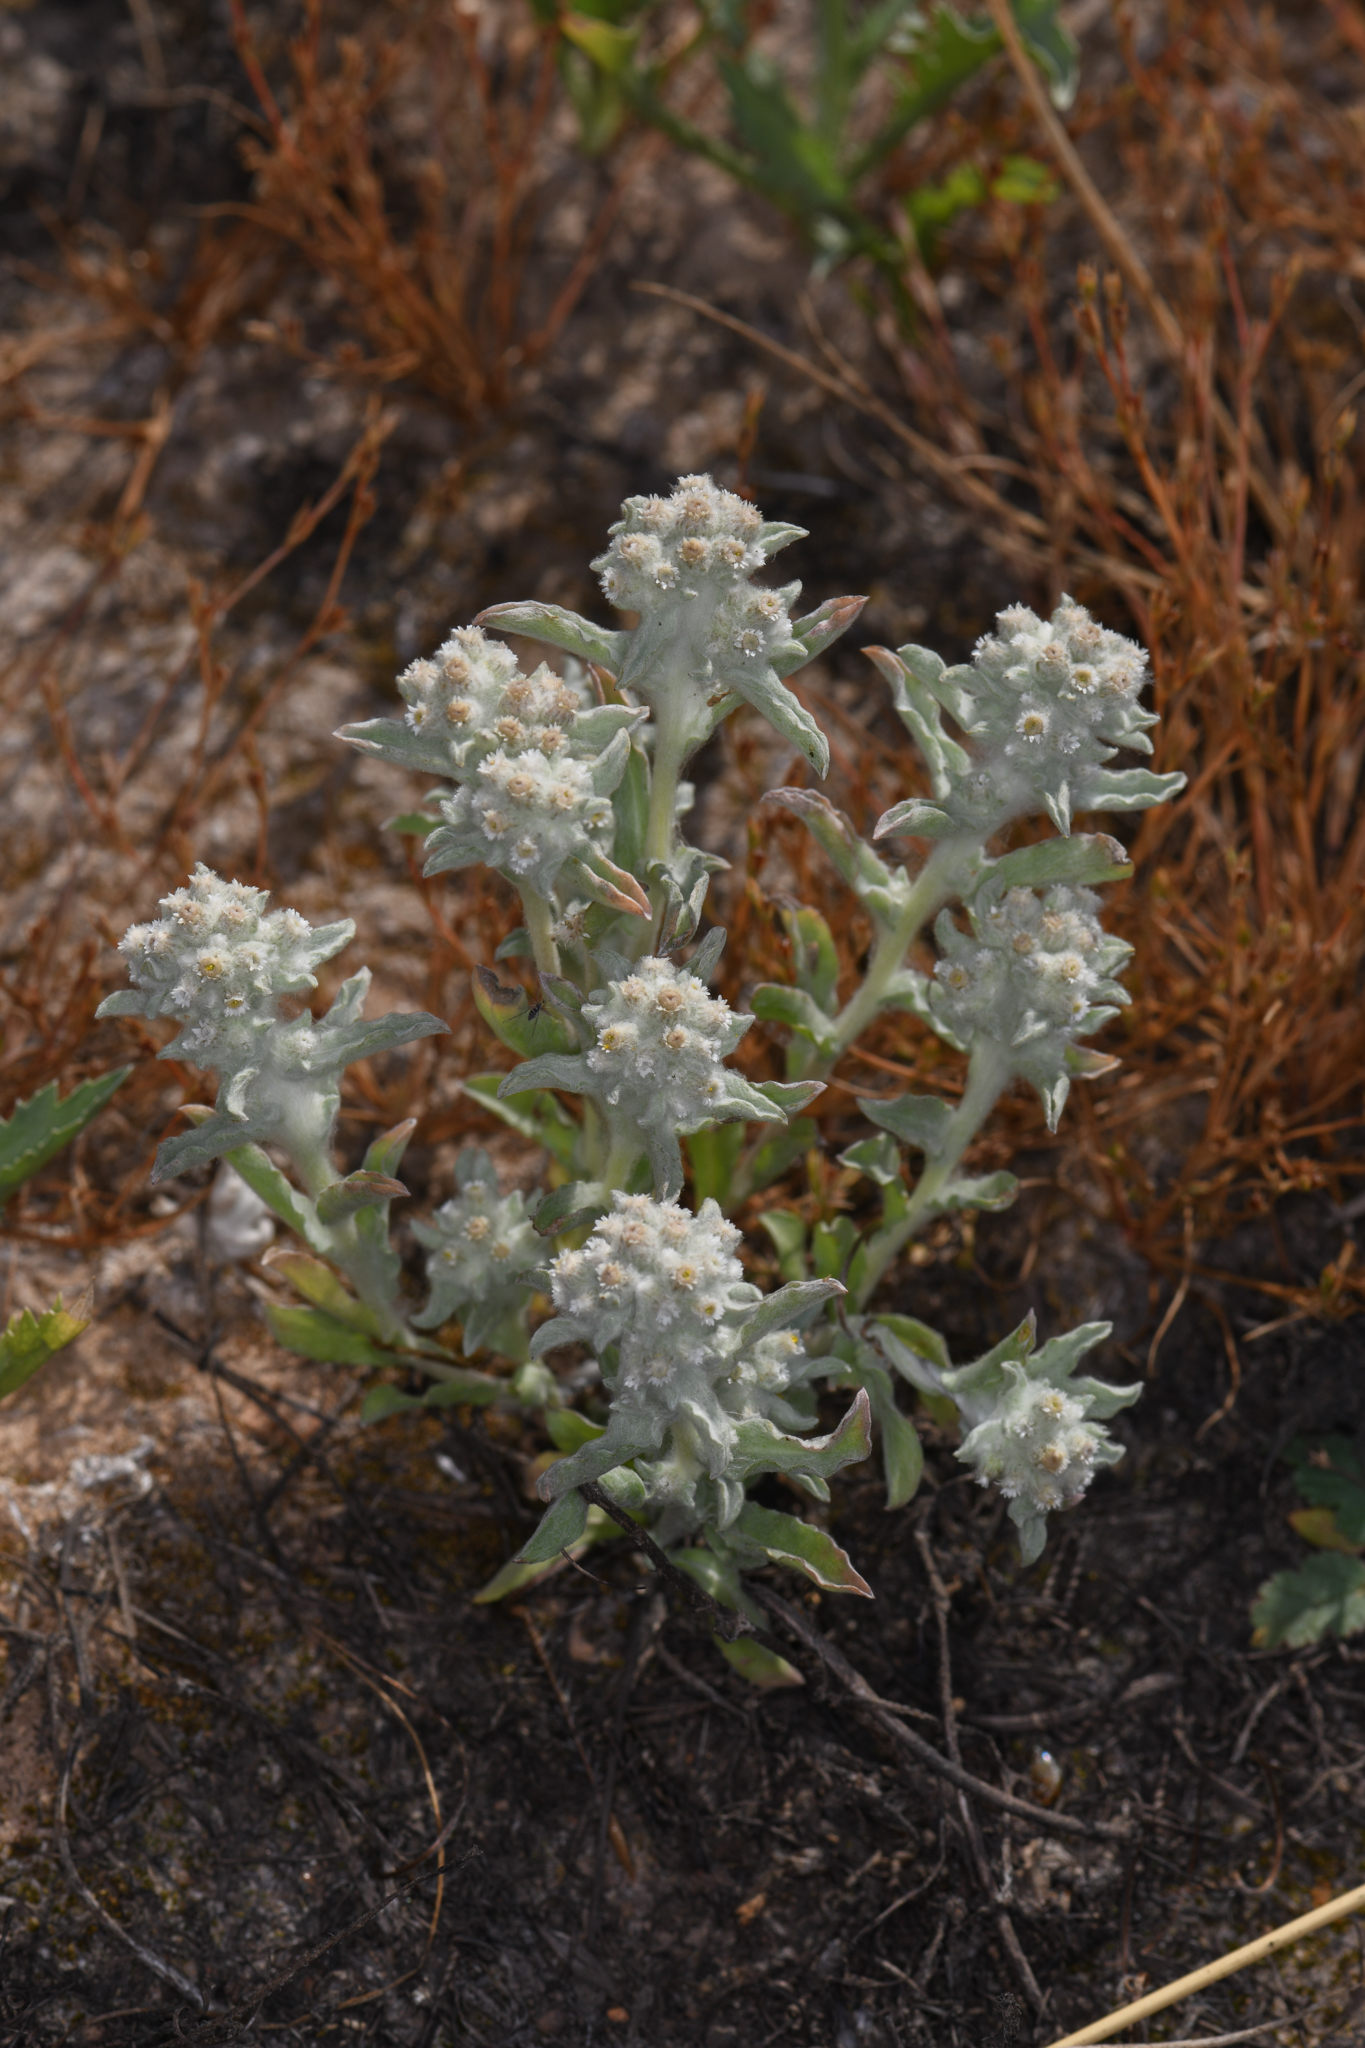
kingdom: Plantae
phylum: Tracheophyta
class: Magnoliopsida
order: Asterales
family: Asteraceae
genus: Gnaphalium
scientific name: Gnaphalium palustre
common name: Western marsh cudweed
